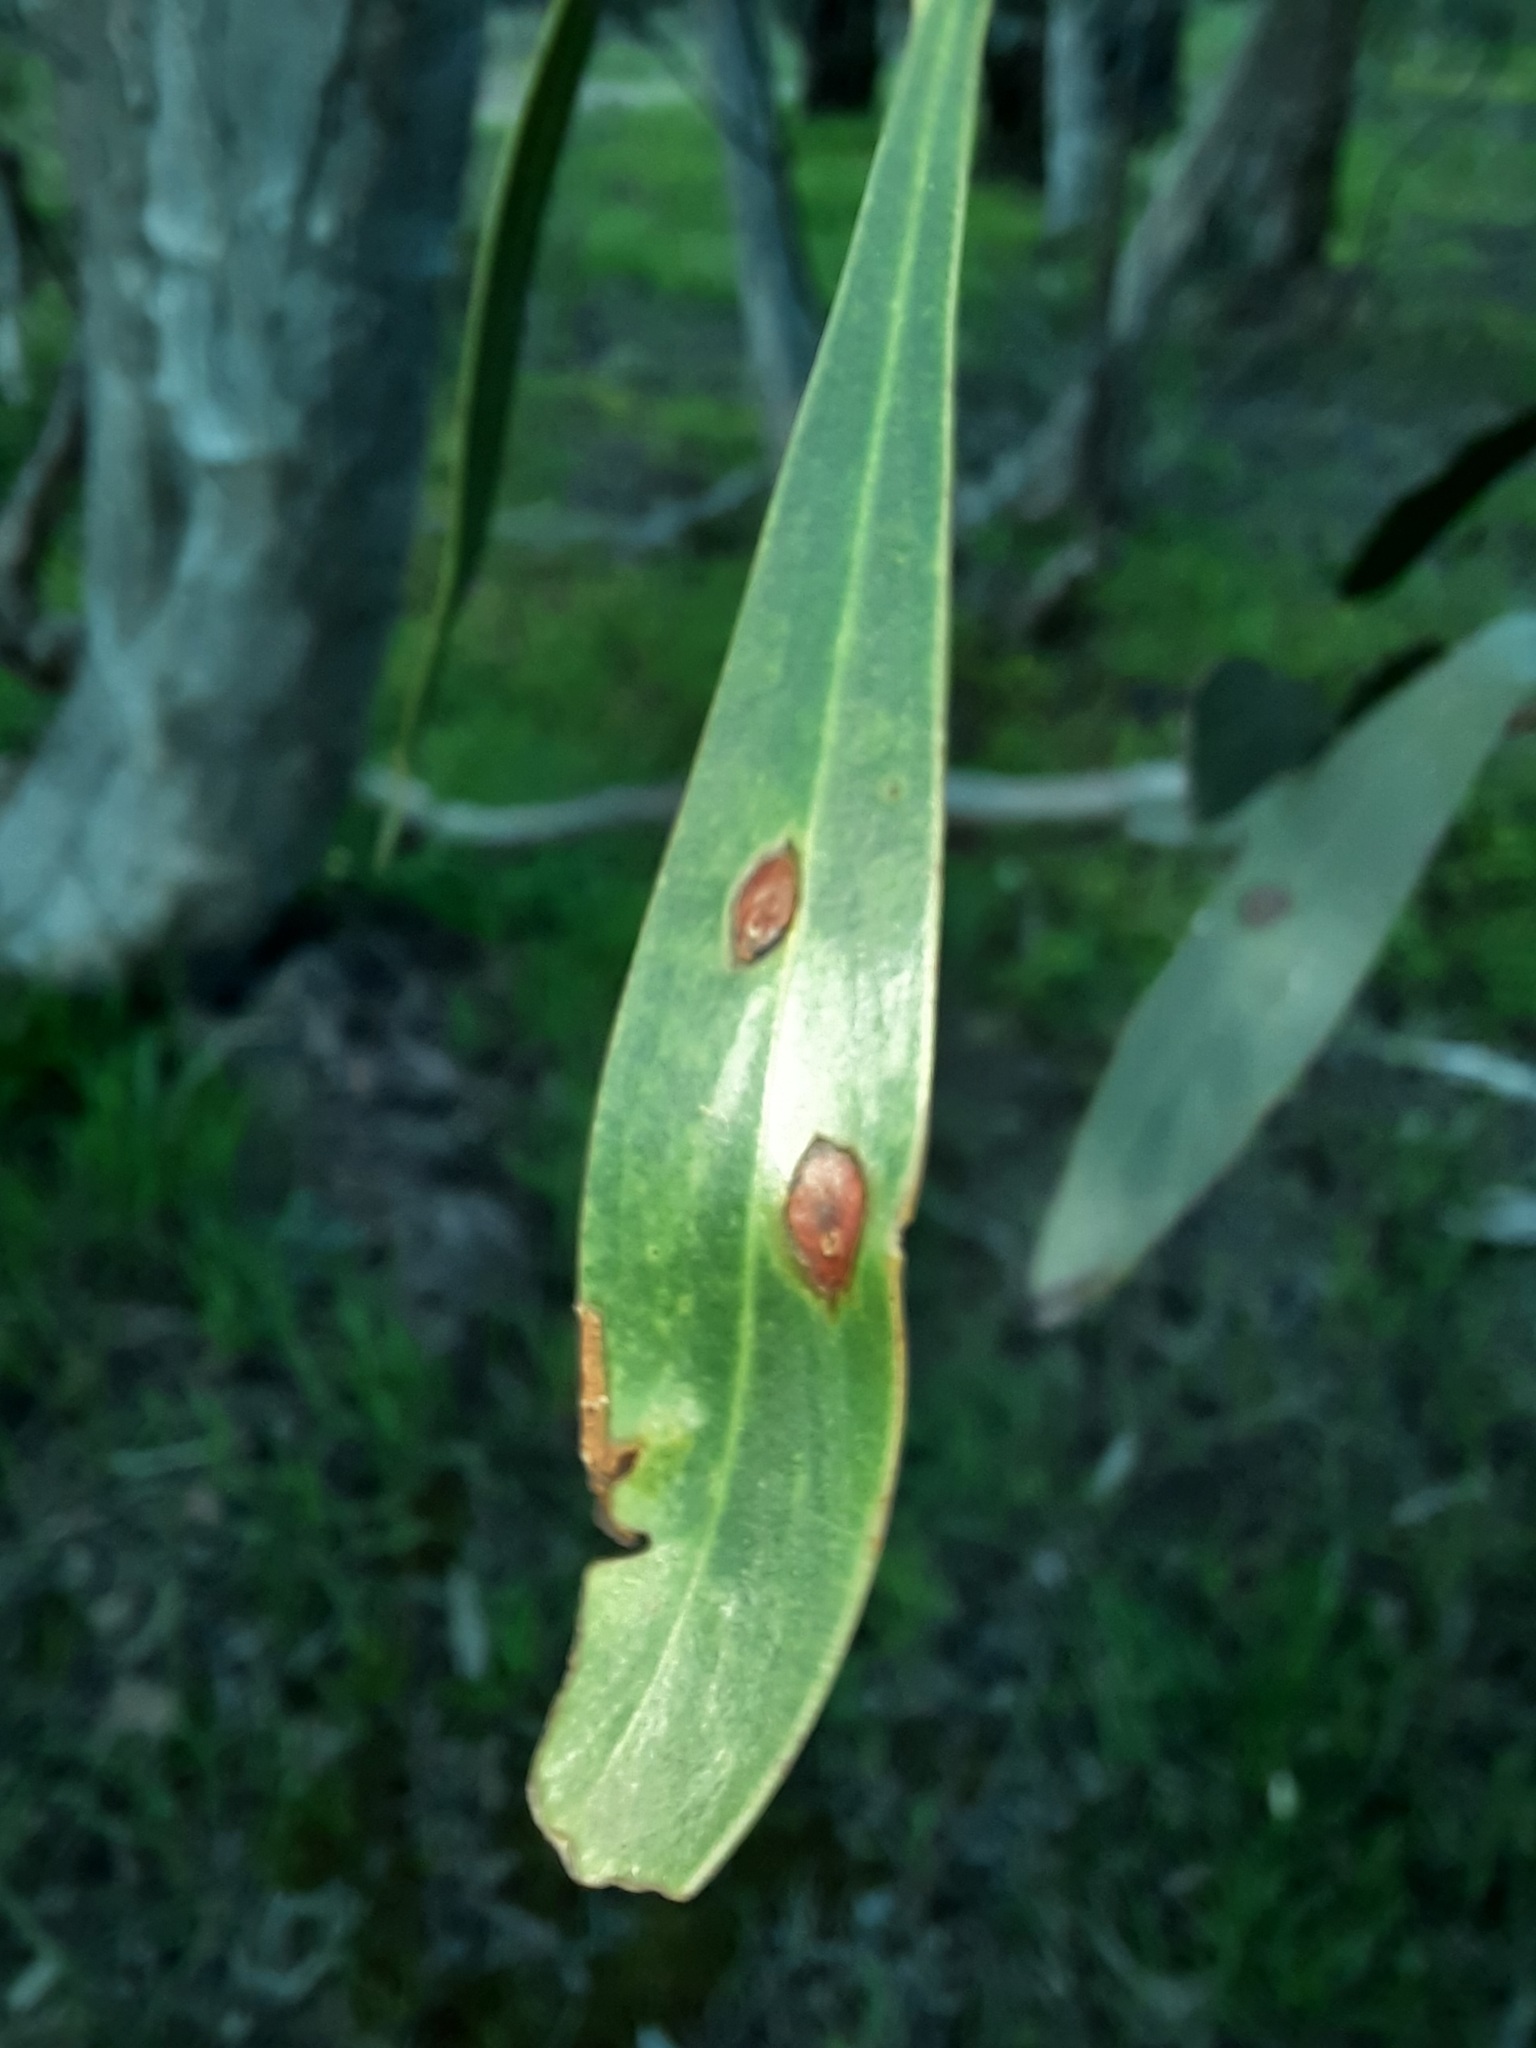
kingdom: Plantae
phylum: Tracheophyta
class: Magnoliopsida
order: Fabales
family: Fabaceae
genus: Acacia
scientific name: Acacia pycnantha
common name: Golden wattle
